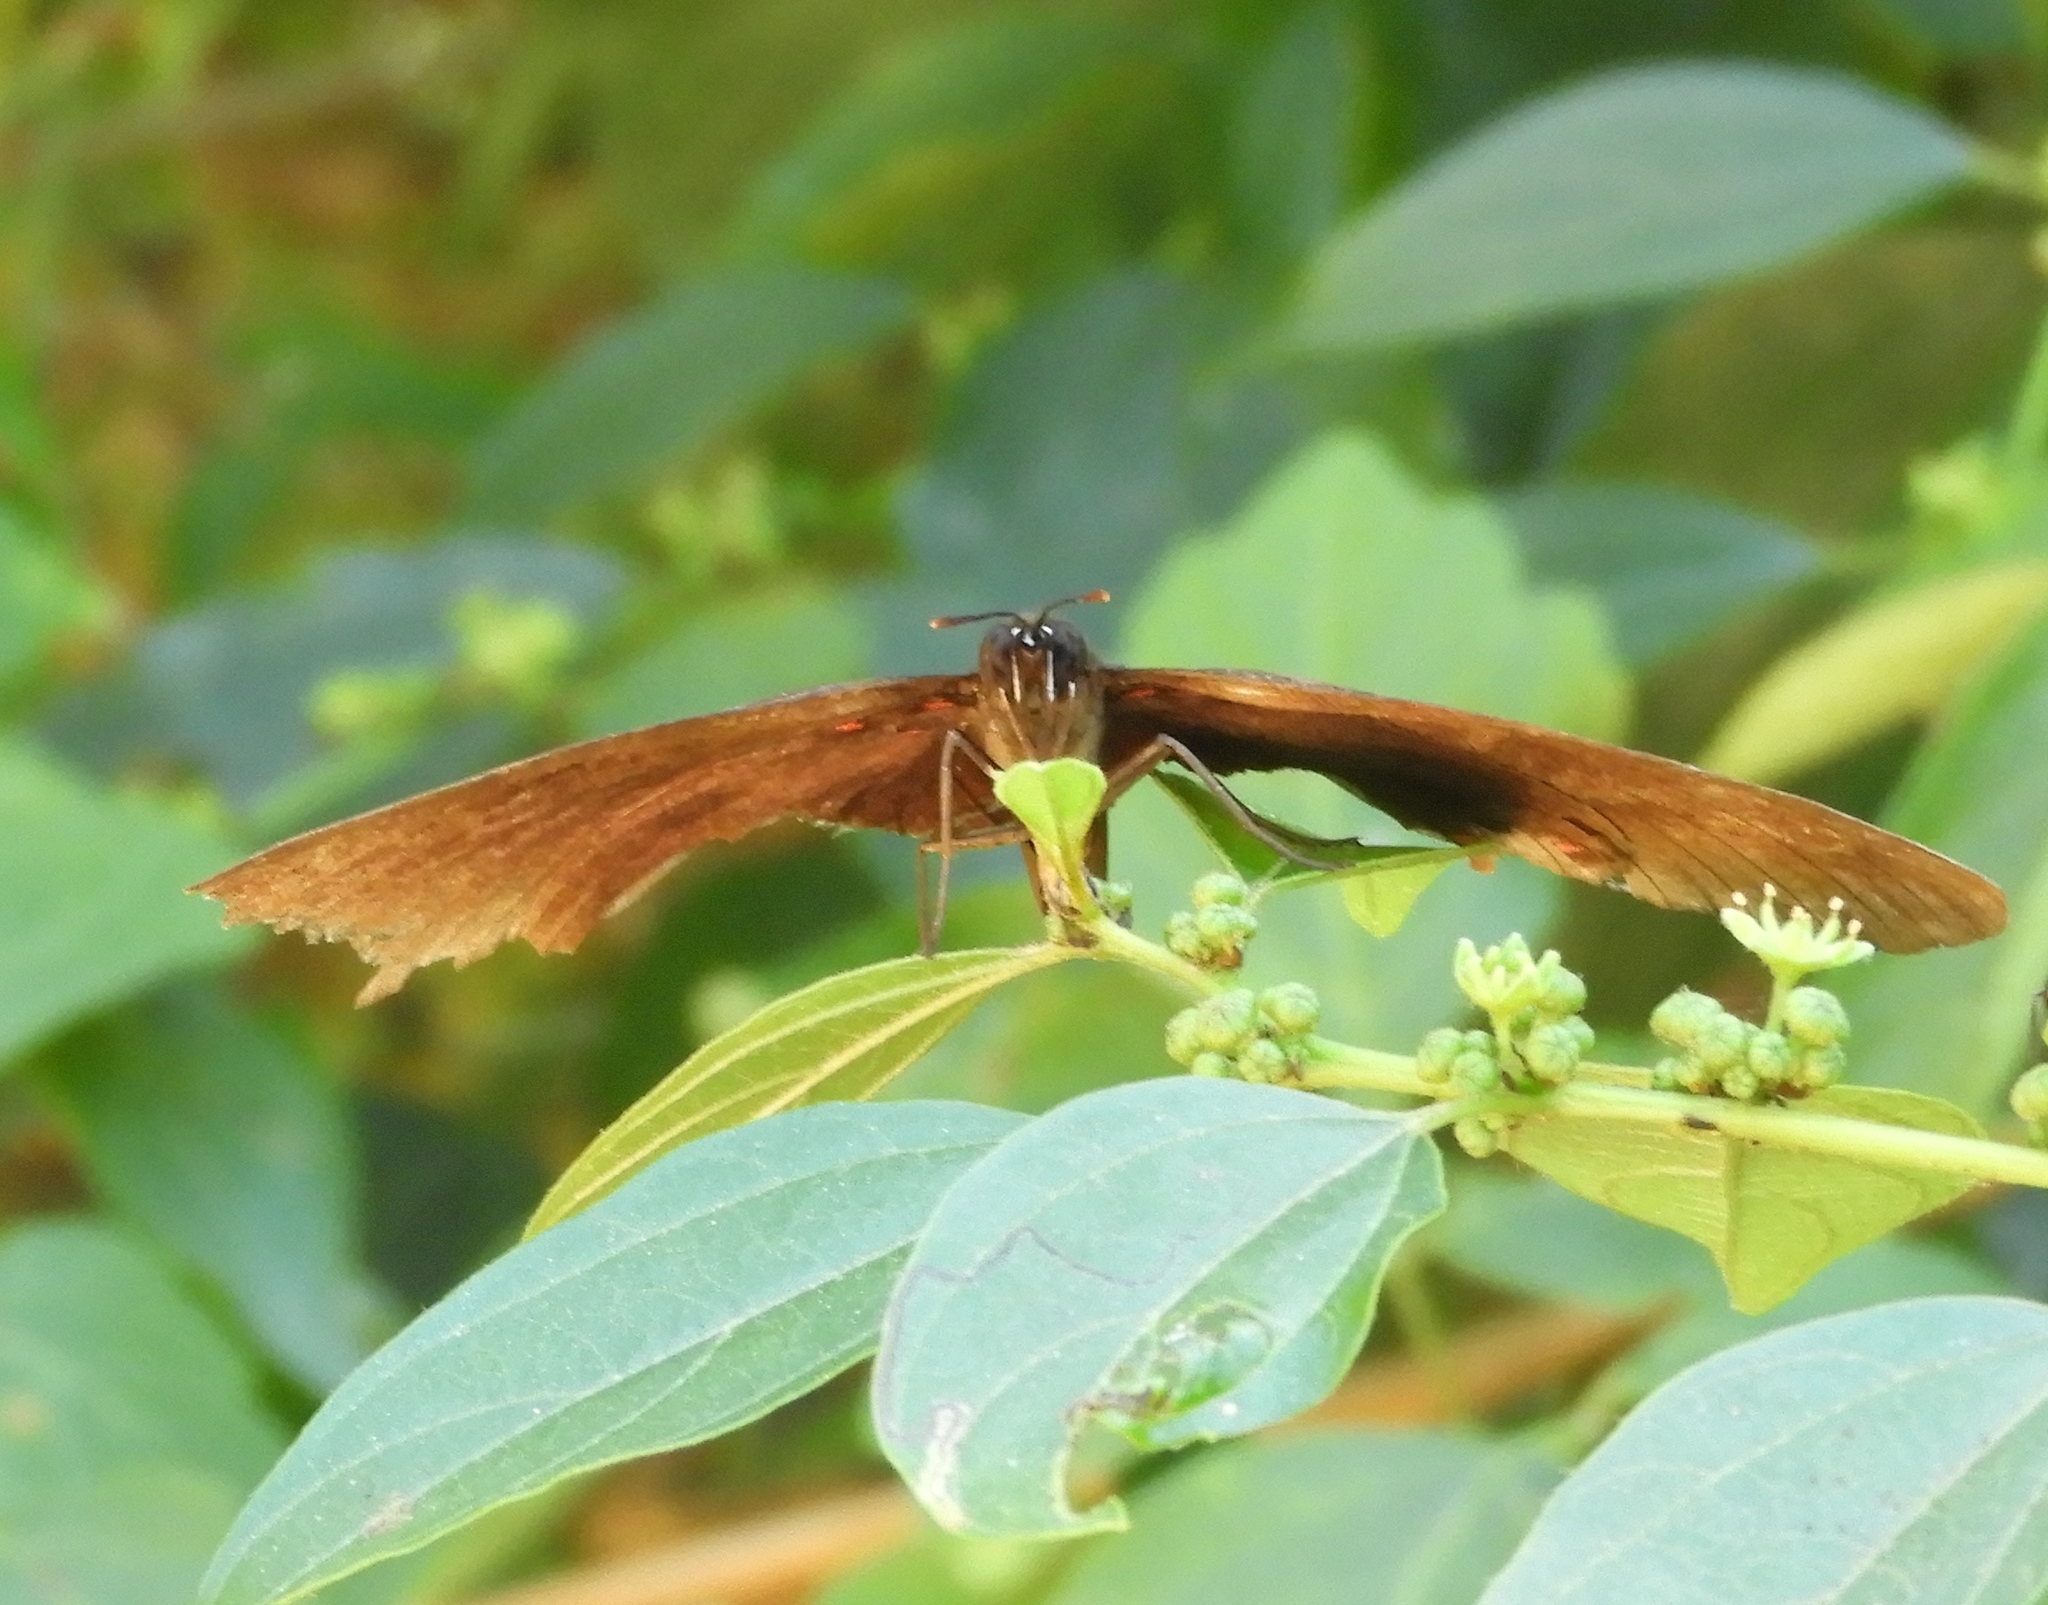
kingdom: Animalia
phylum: Arthropoda
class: Insecta
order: Lepidoptera
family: Nymphalidae
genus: Biblis
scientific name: Biblis aganisa
